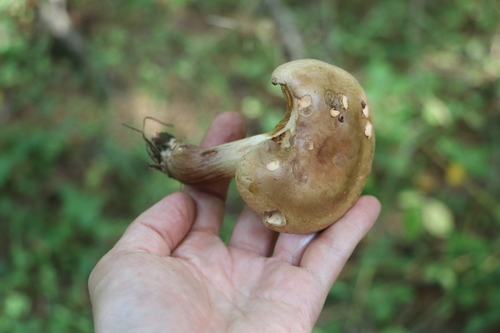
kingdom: Fungi
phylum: Basidiomycota
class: Agaricomycetes
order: Boletales
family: Paxillaceae
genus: Paxillus
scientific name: Paxillus involutus
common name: Brown roll rim
